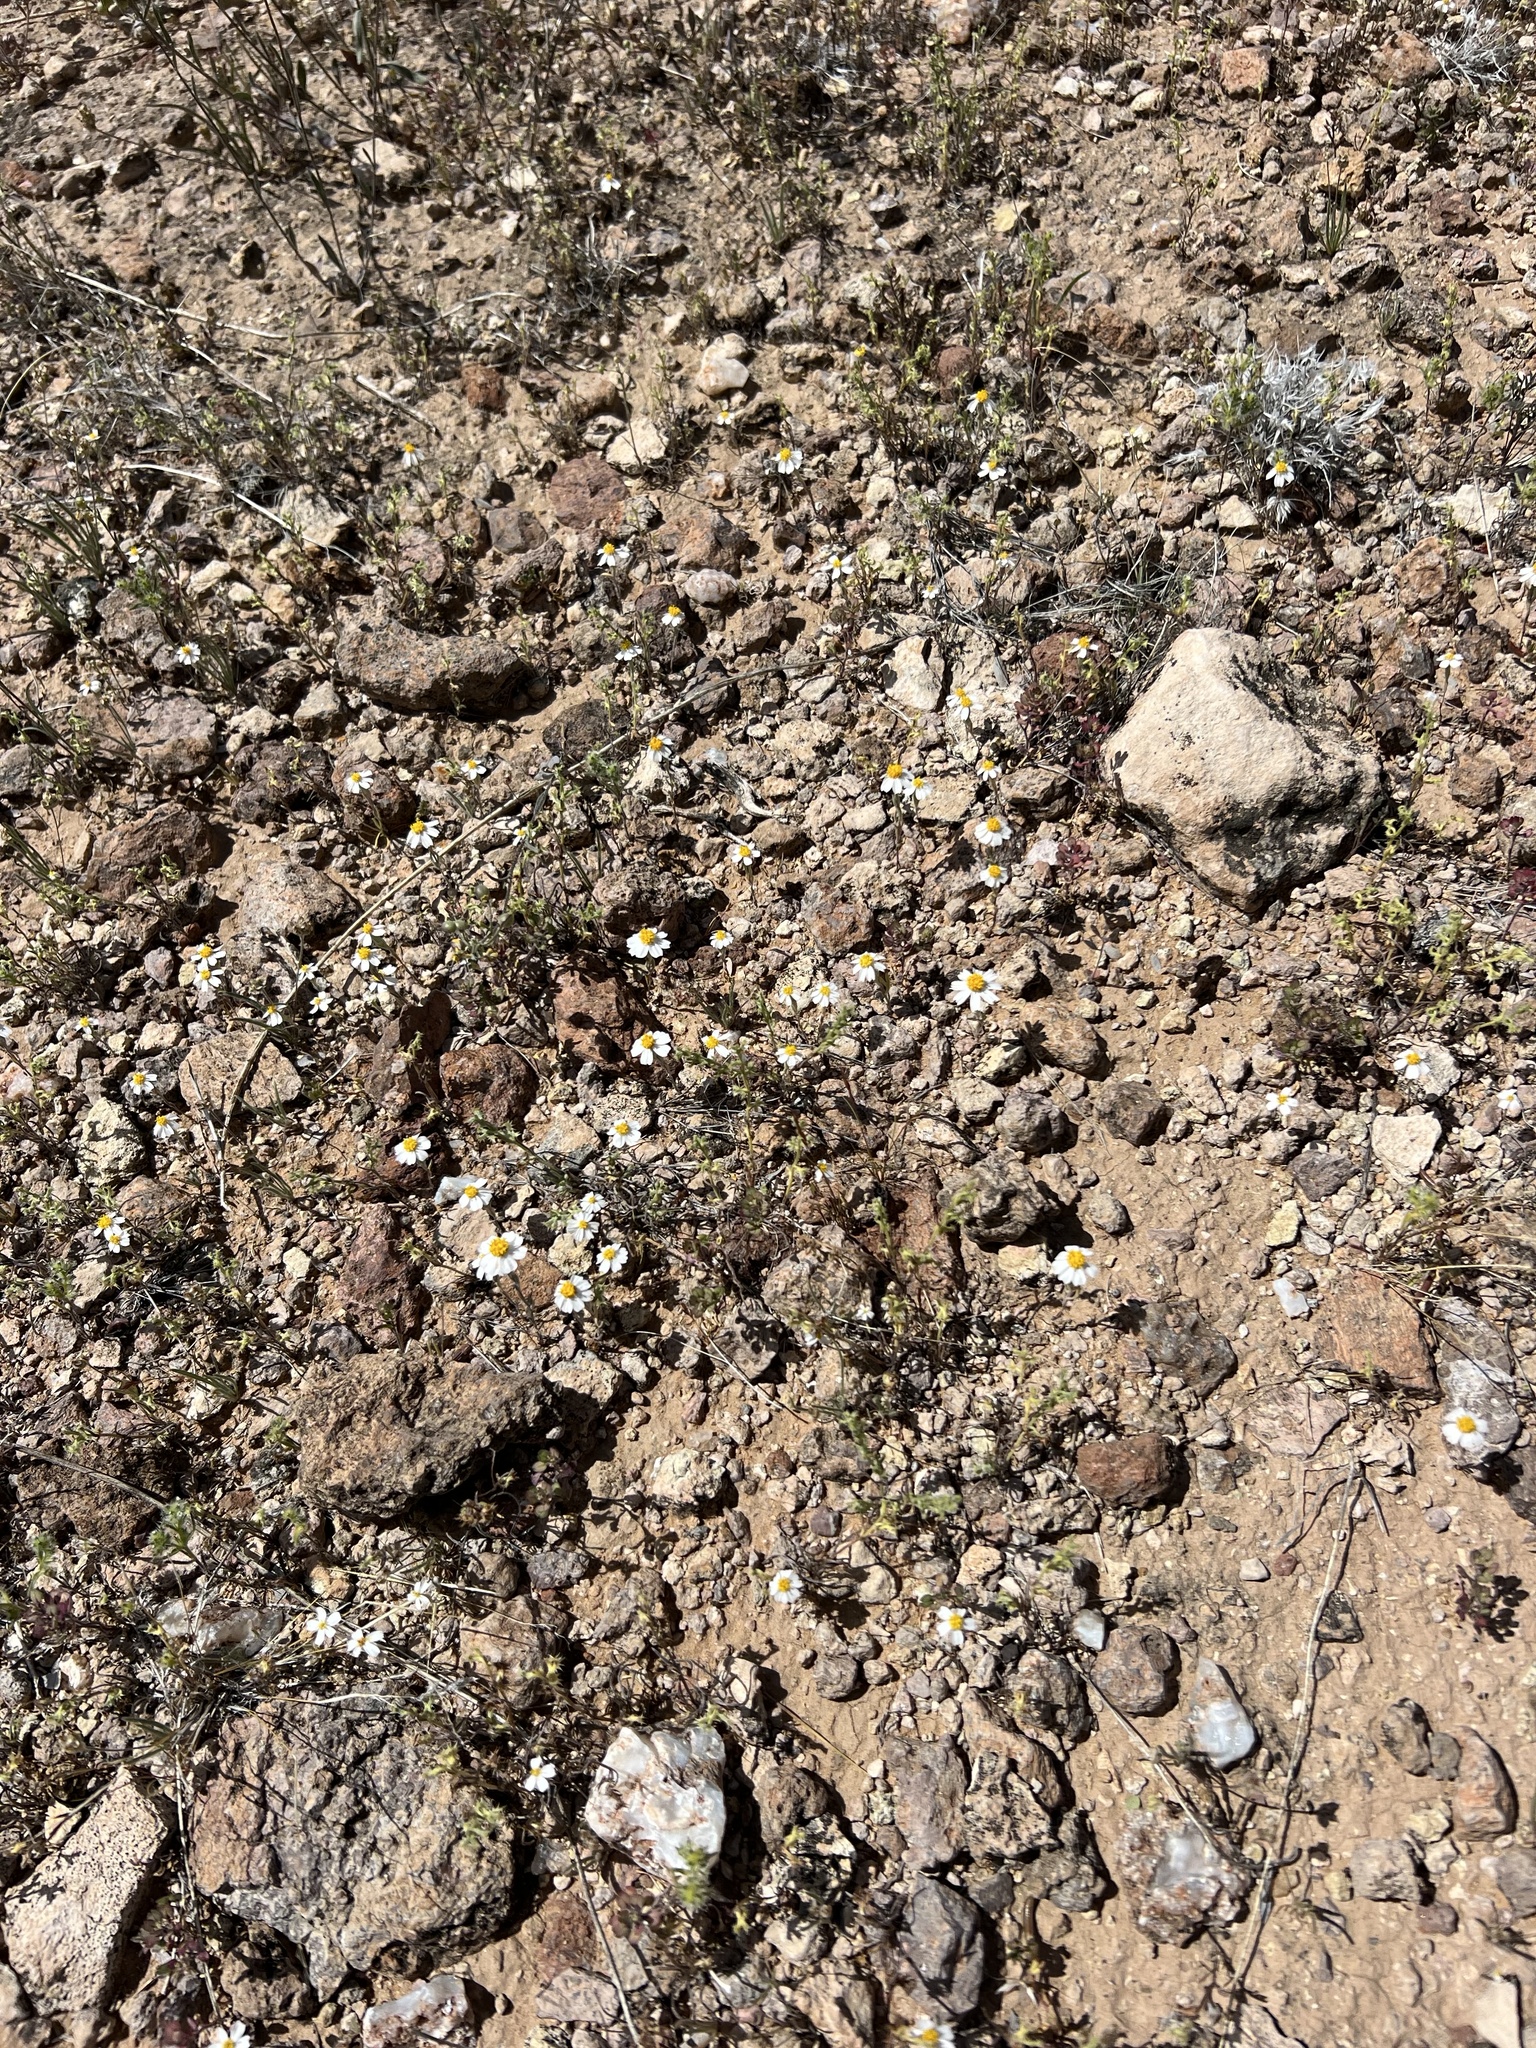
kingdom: Plantae
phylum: Tracheophyta
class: Magnoliopsida
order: Asterales
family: Asteraceae
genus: Eriophyllum
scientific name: Eriophyllum lanosum
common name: White easter-bonnets
